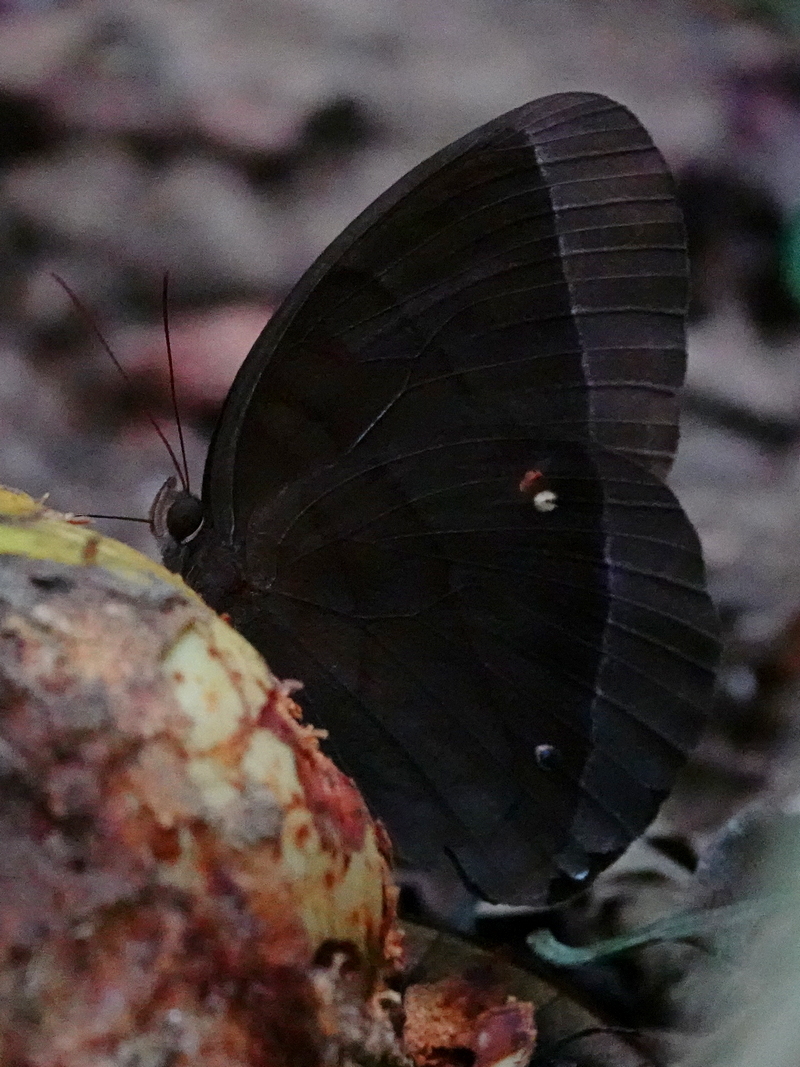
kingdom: Animalia
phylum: Arthropoda
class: Insecta
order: Lepidoptera
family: Nymphalidae
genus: Thaumantis
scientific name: Thaumantis diores
